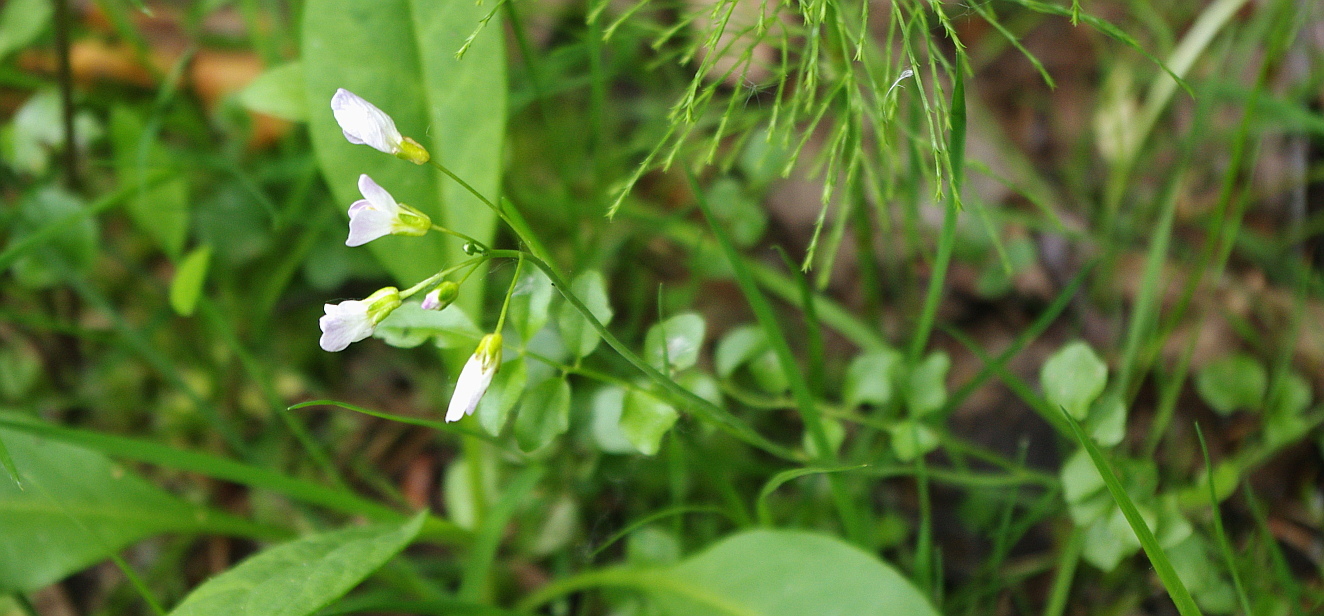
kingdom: Plantae
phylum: Tracheophyta
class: Magnoliopsida
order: Brassicales
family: Brassicaceae
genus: Cardamine
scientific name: Cardamine dentata
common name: Toothed bittercress
